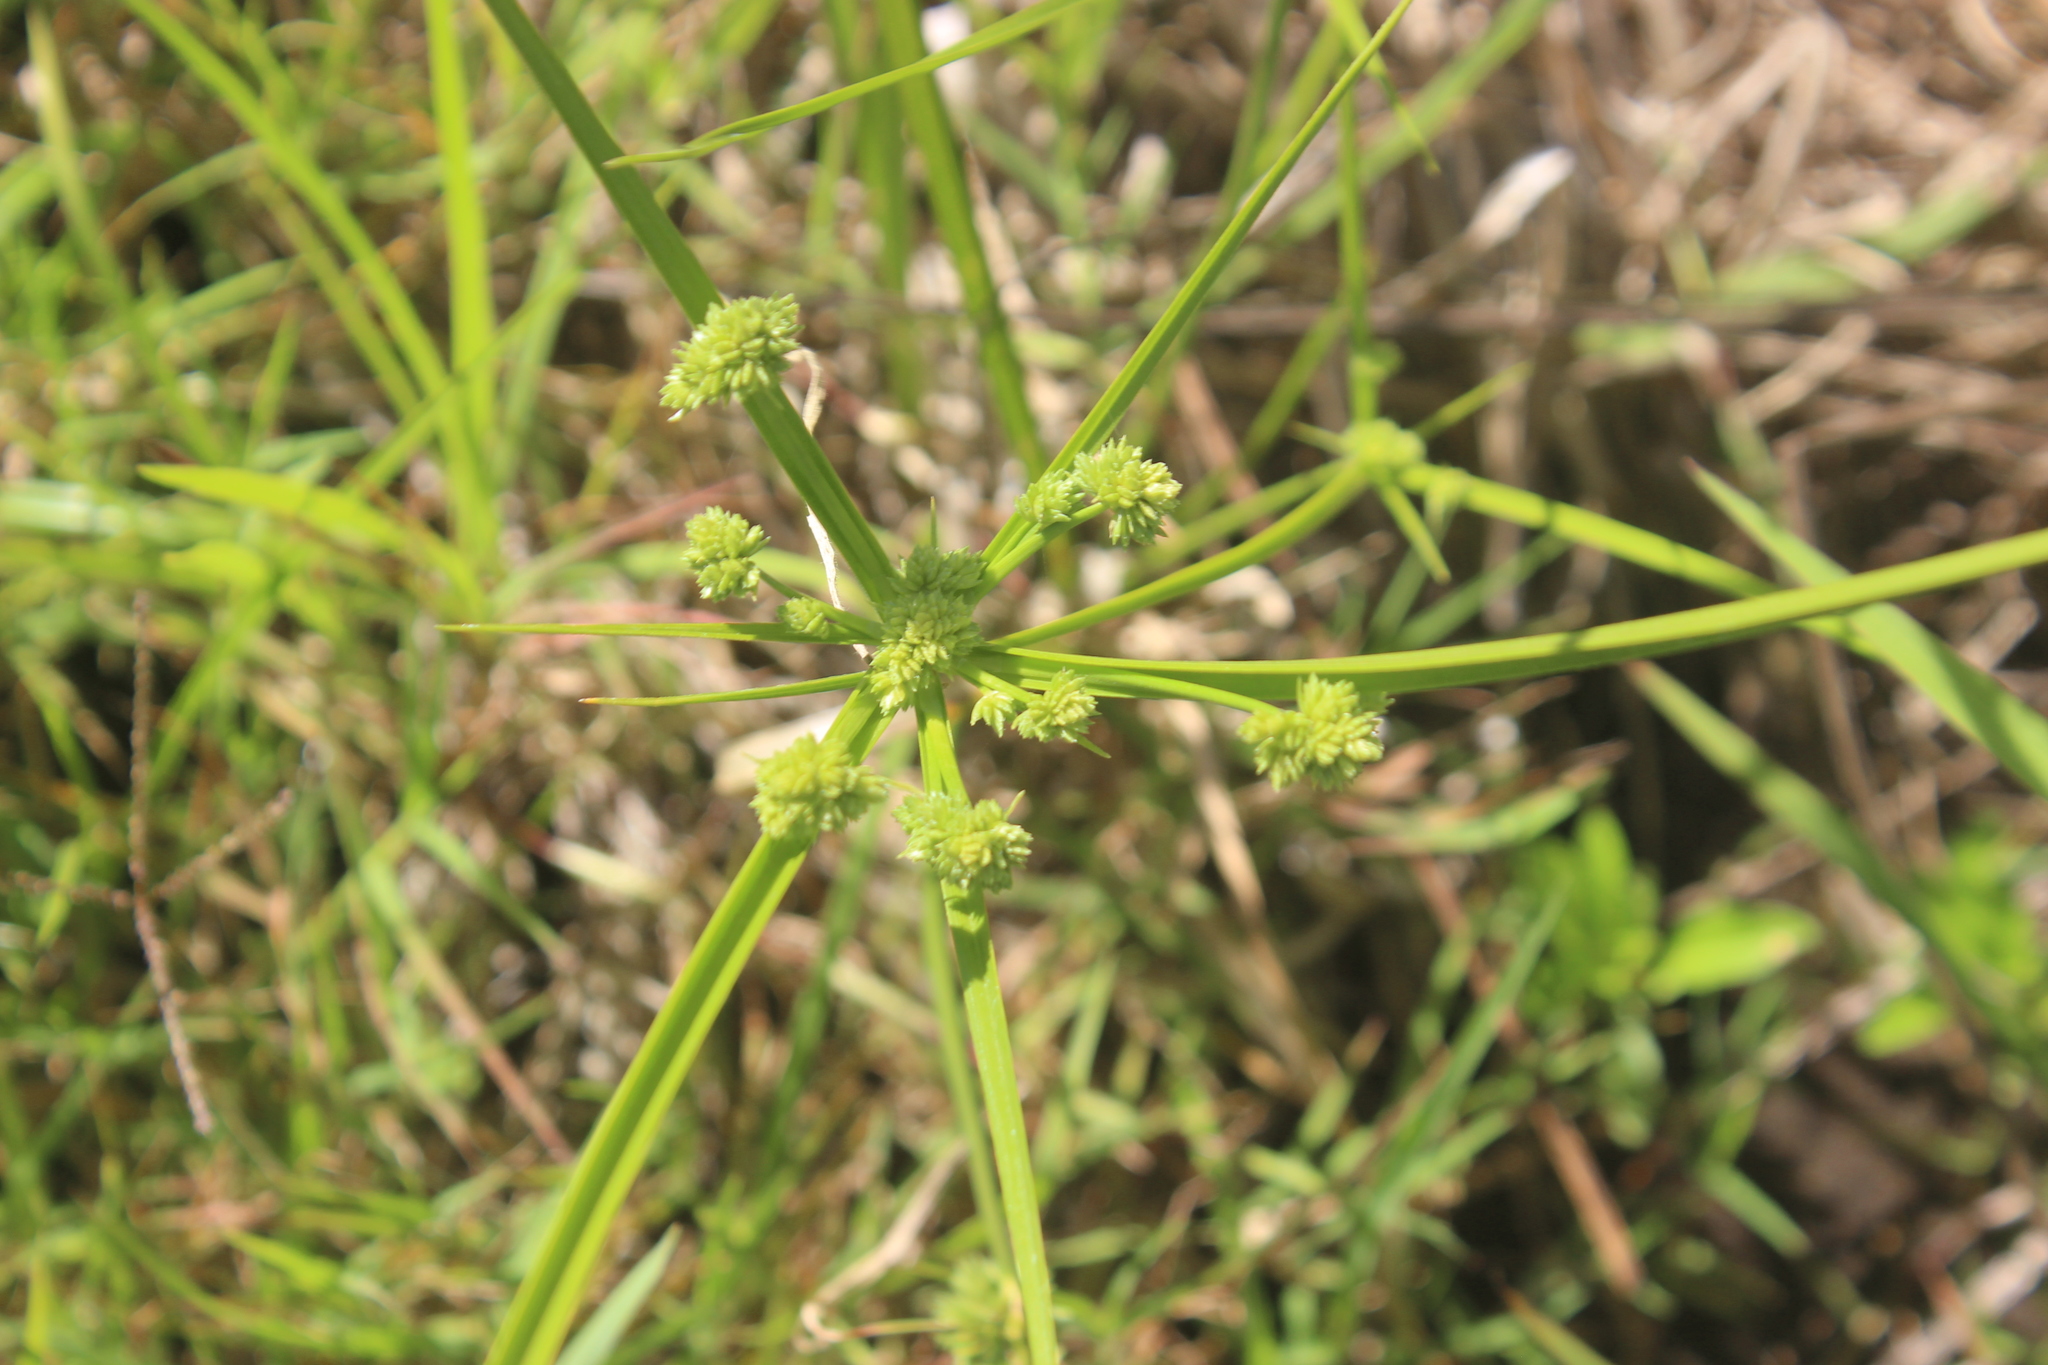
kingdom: Plantae
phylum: Tracheophyta
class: Liliopsida
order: Poales
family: Cyperaceae
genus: Cyperus
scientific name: Cyperus eragrostis
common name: Tall flatsedge
